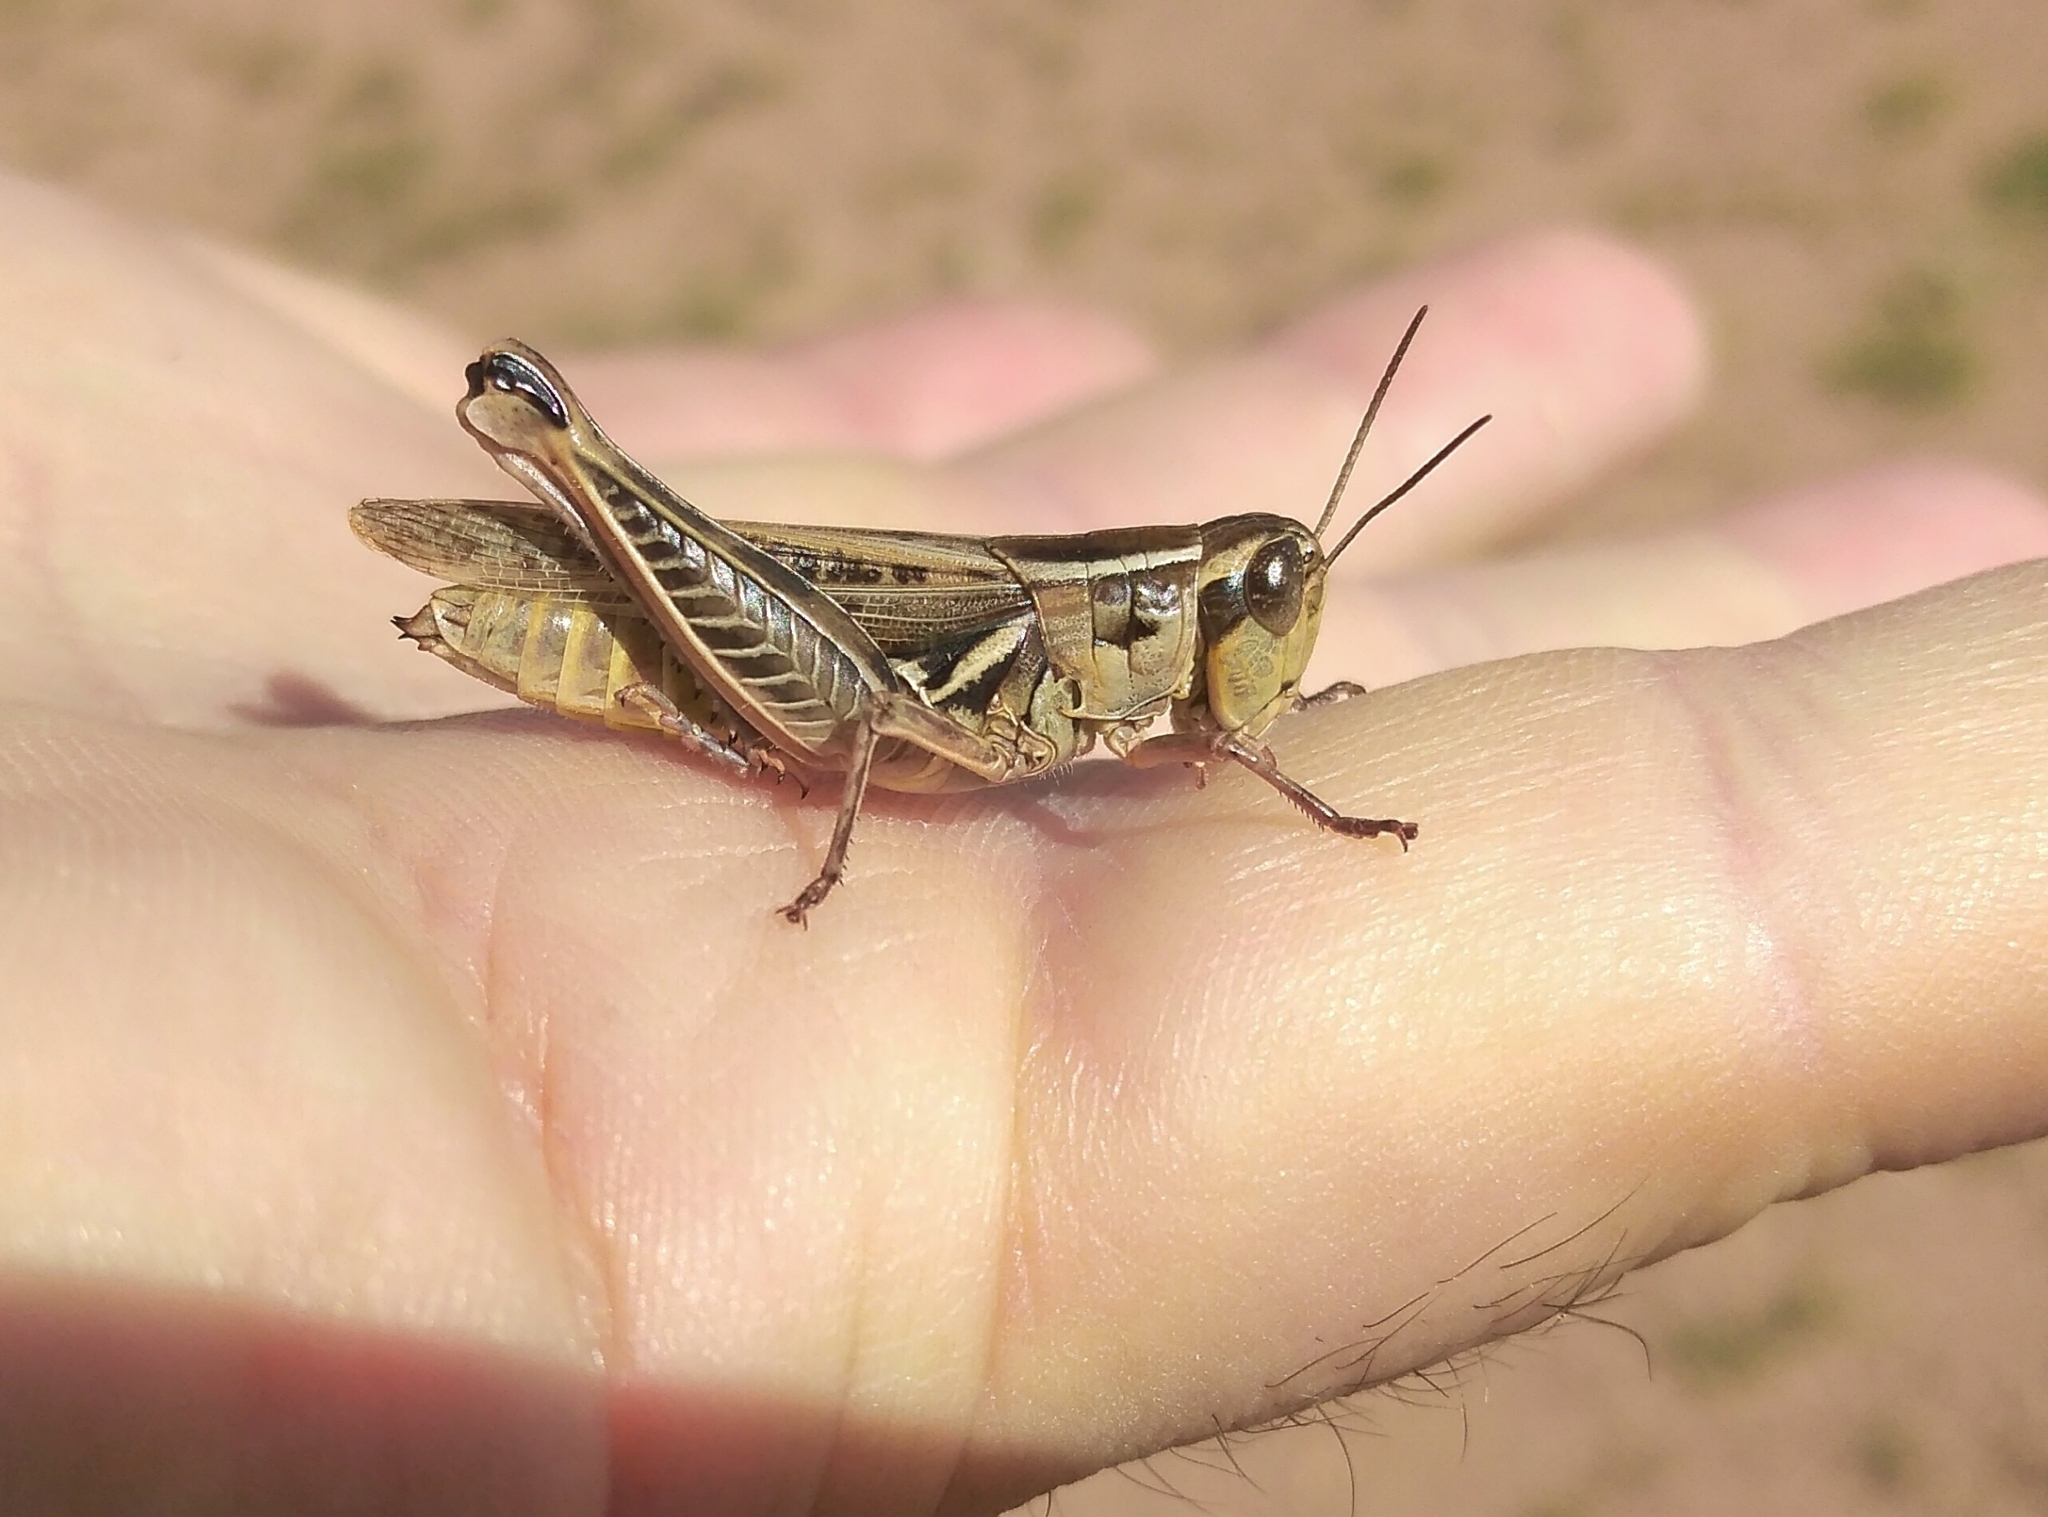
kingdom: Animalia
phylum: Arthropoda
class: Insecta
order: Orthoptera
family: Acrididae
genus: Dichroplus
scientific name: Dichroplus pratensis
